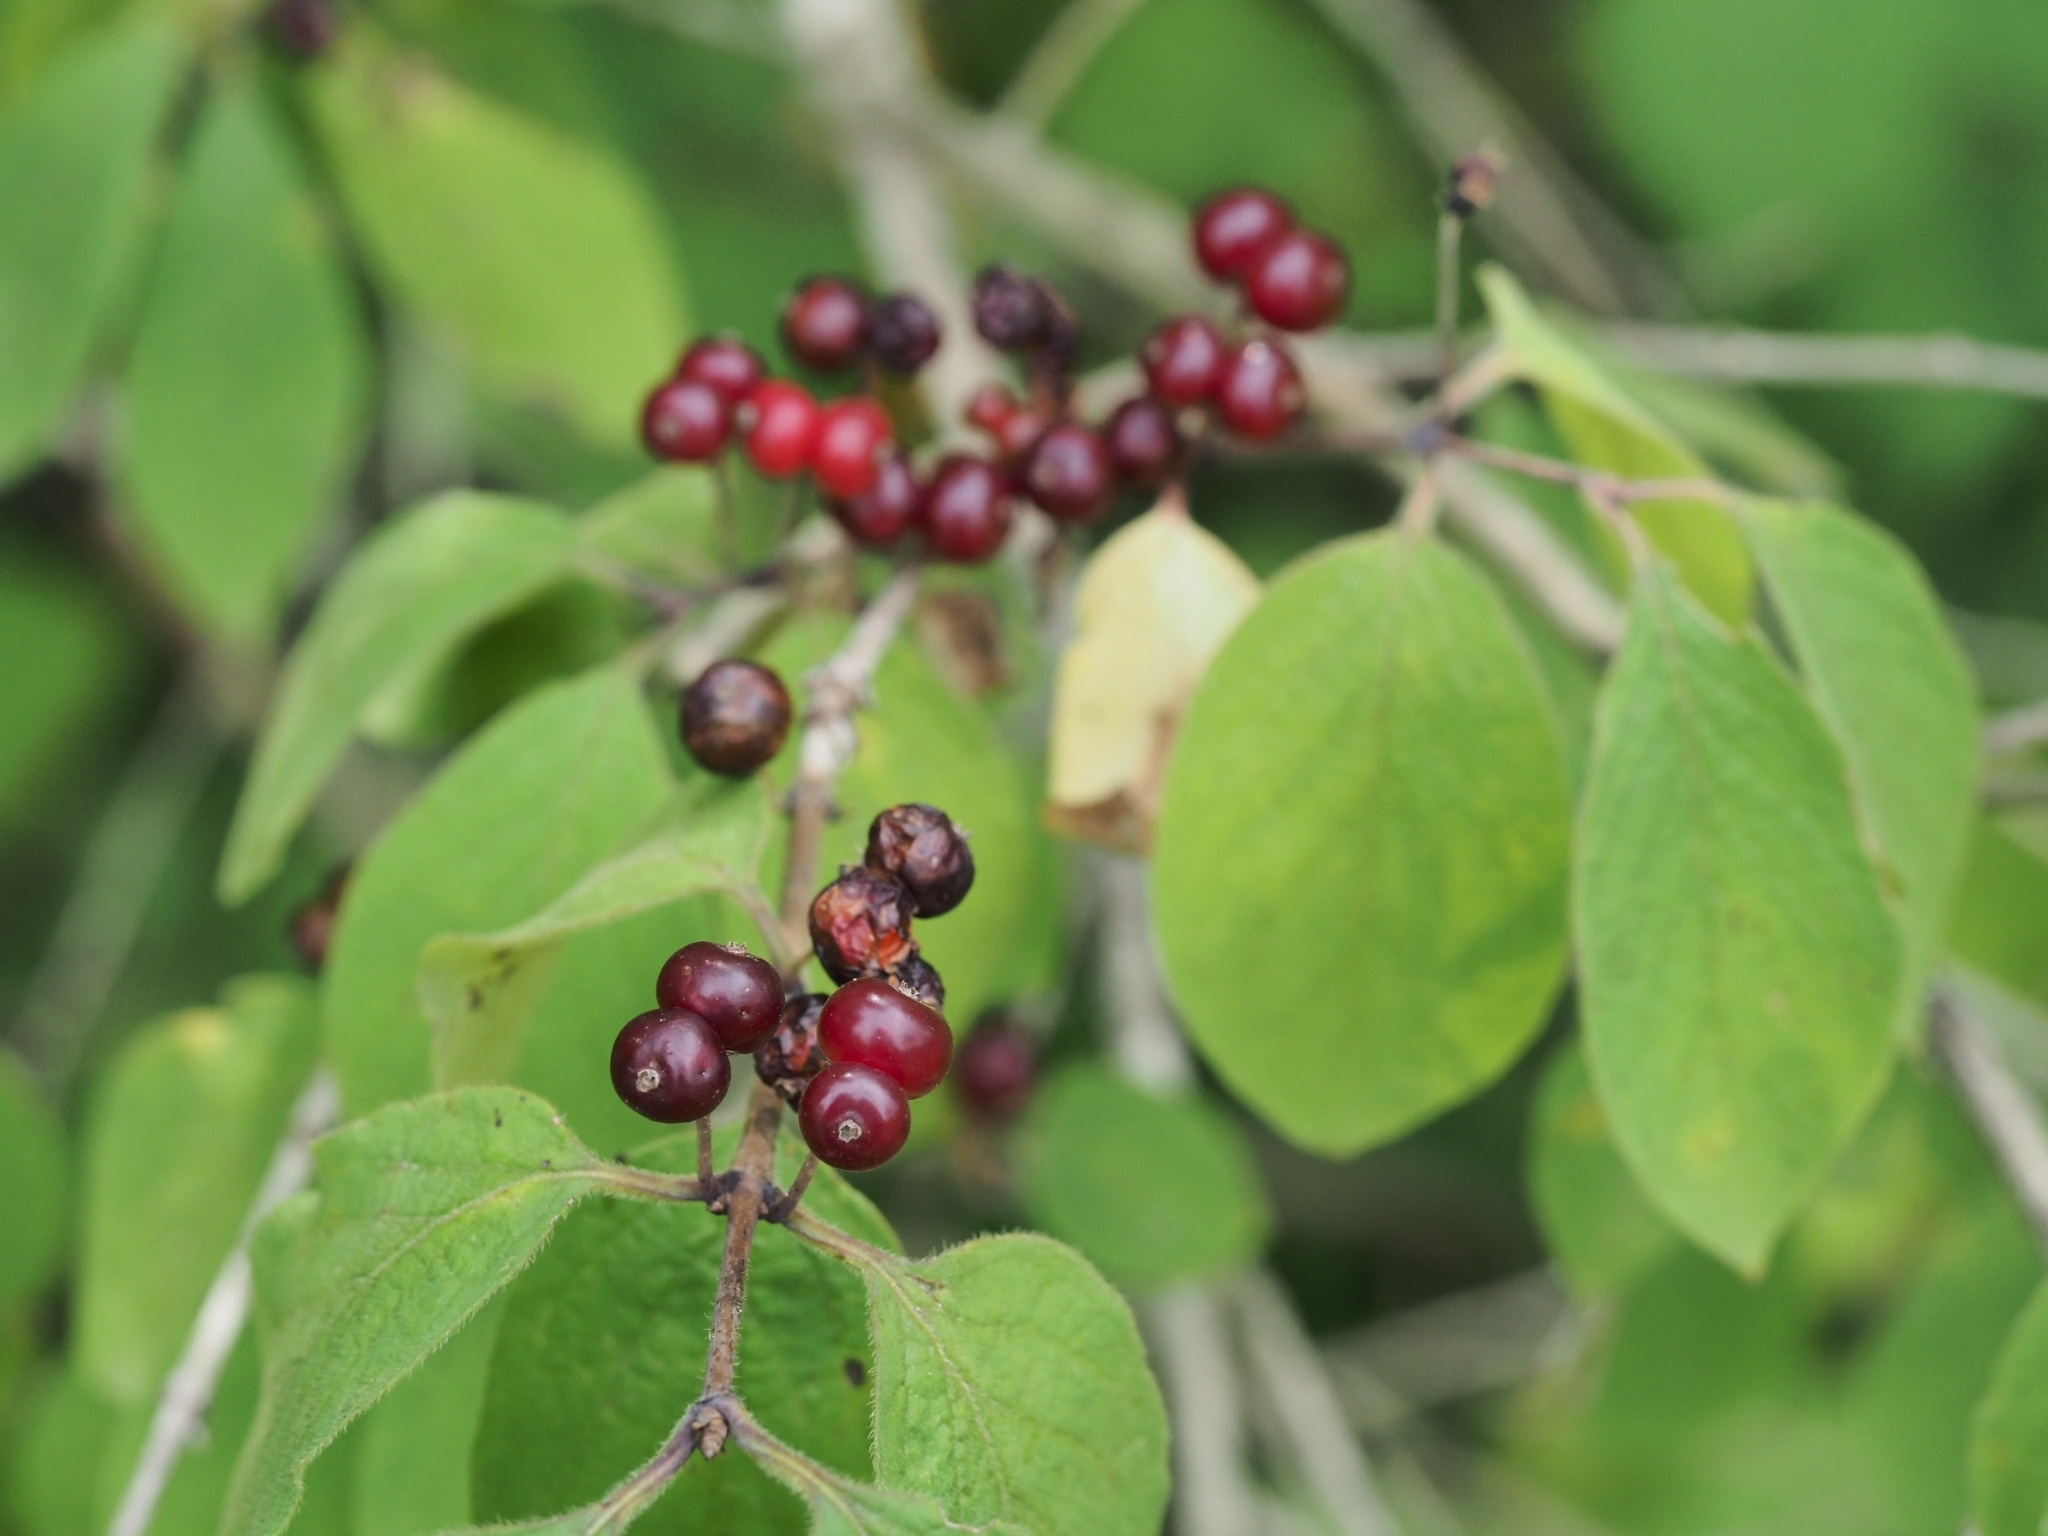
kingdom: Plantae
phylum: Tracheophyta
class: Magnoliopsida
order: Dipsacales
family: Caprifoliaceae
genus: Lonicera
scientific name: Lonicera xylosteum
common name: Fly honeysuckle
